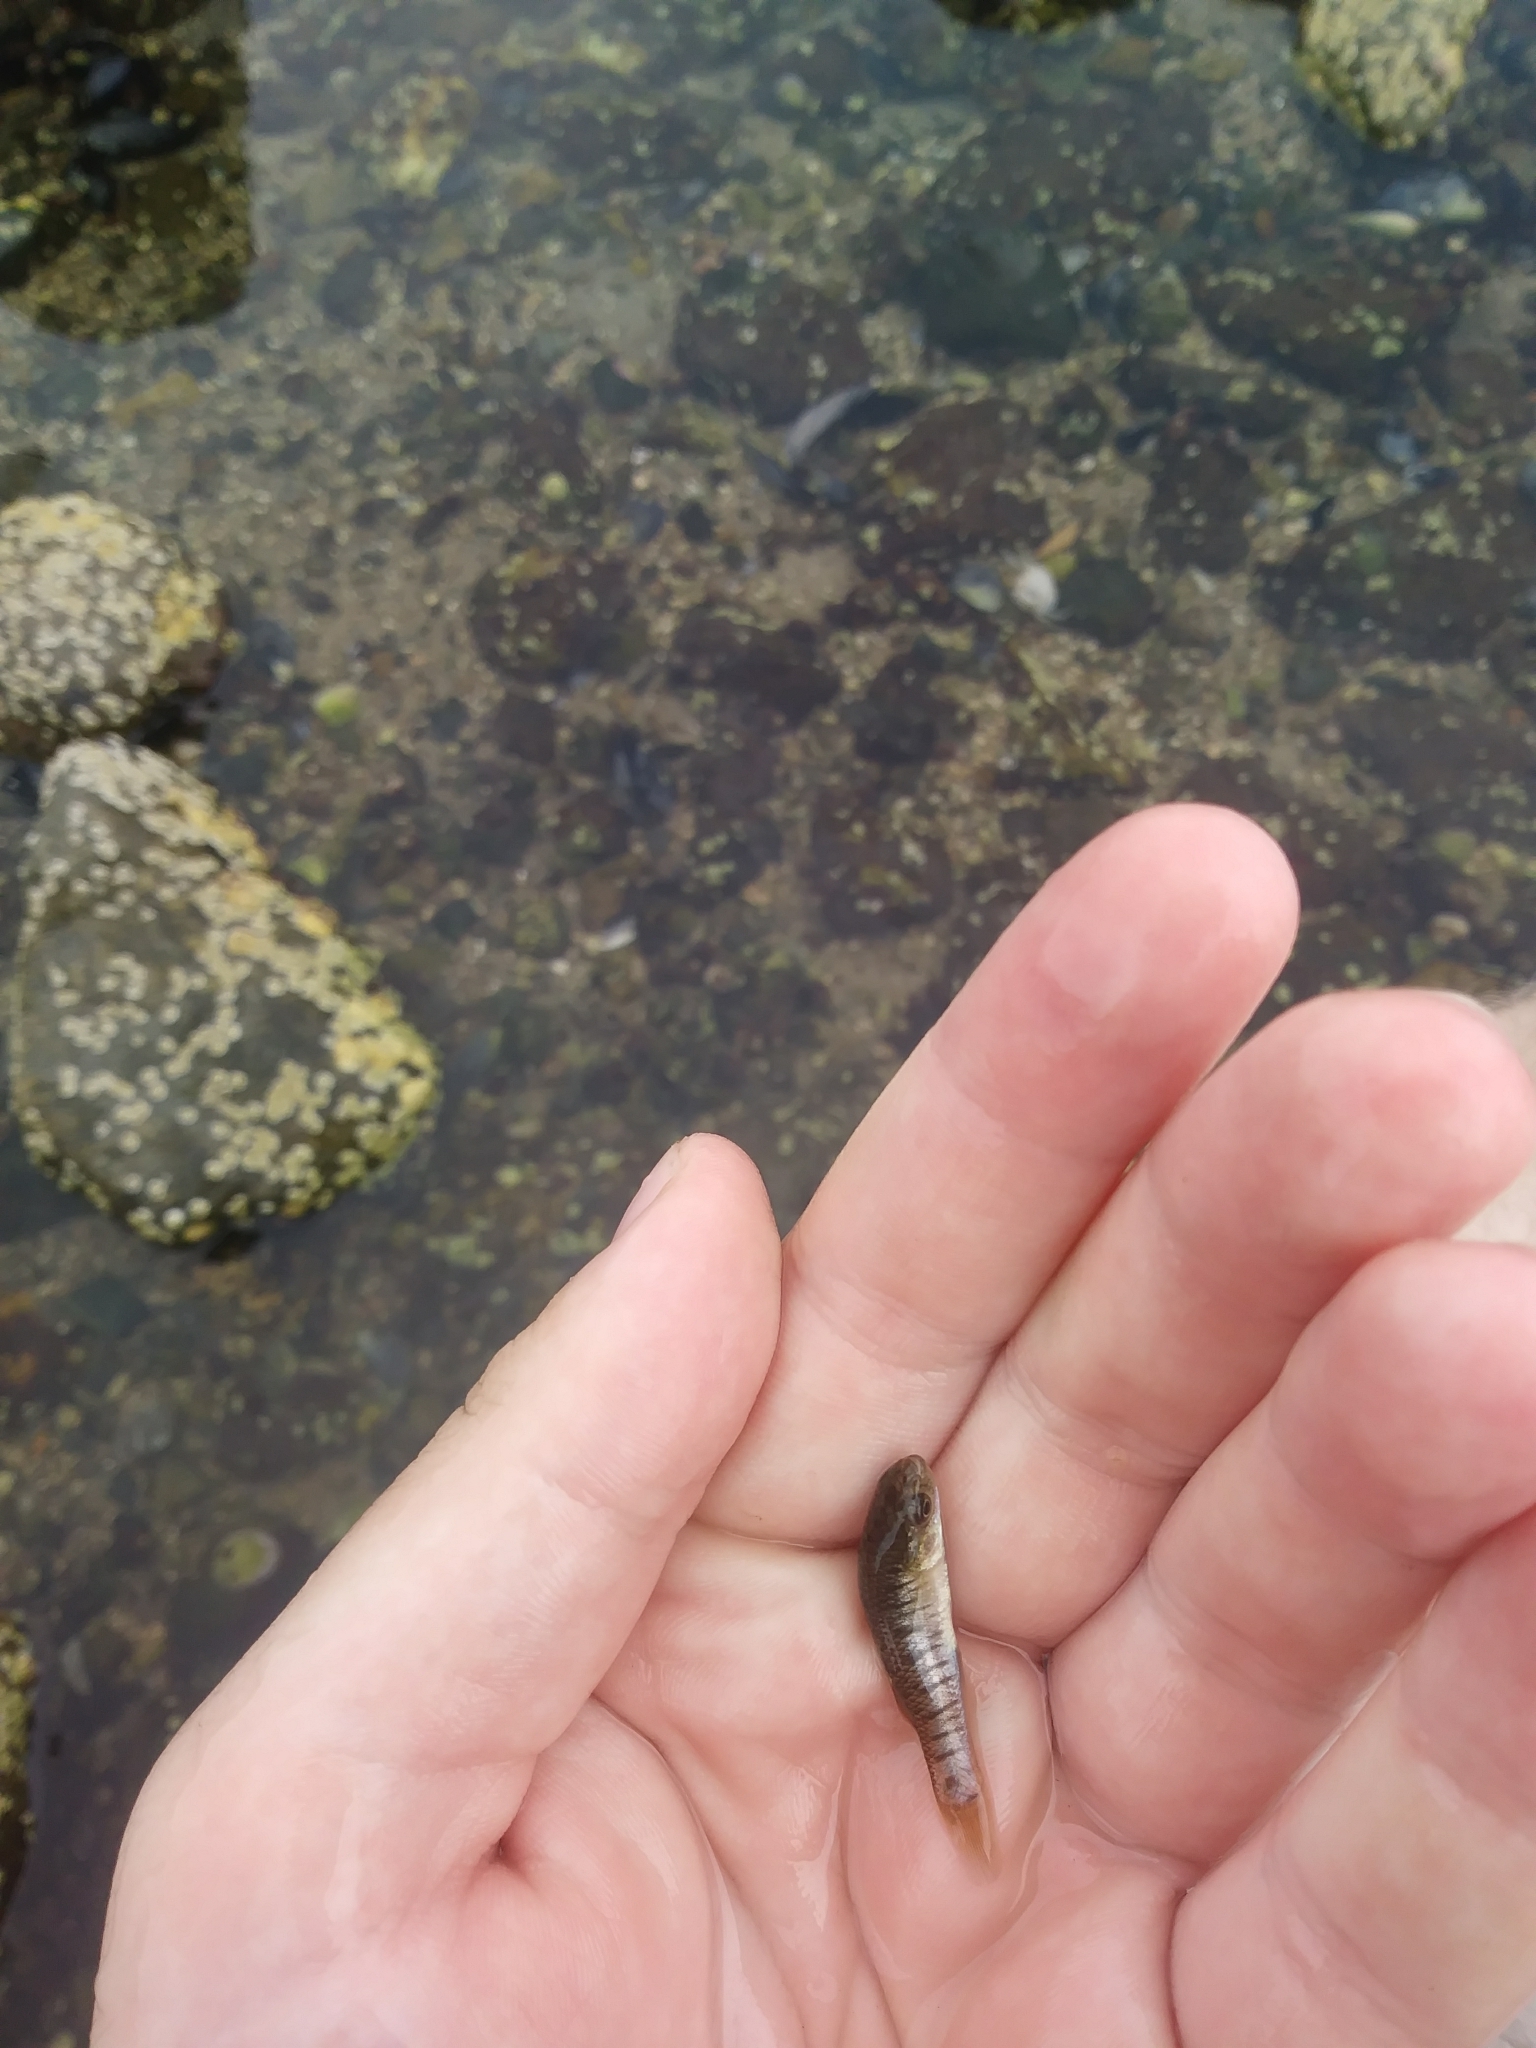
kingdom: Animalia
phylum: Chordata
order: Cyprinodontiformes
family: Fundulidae
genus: Fundulus
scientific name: Fundulus heteroclitus
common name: Mummichog
